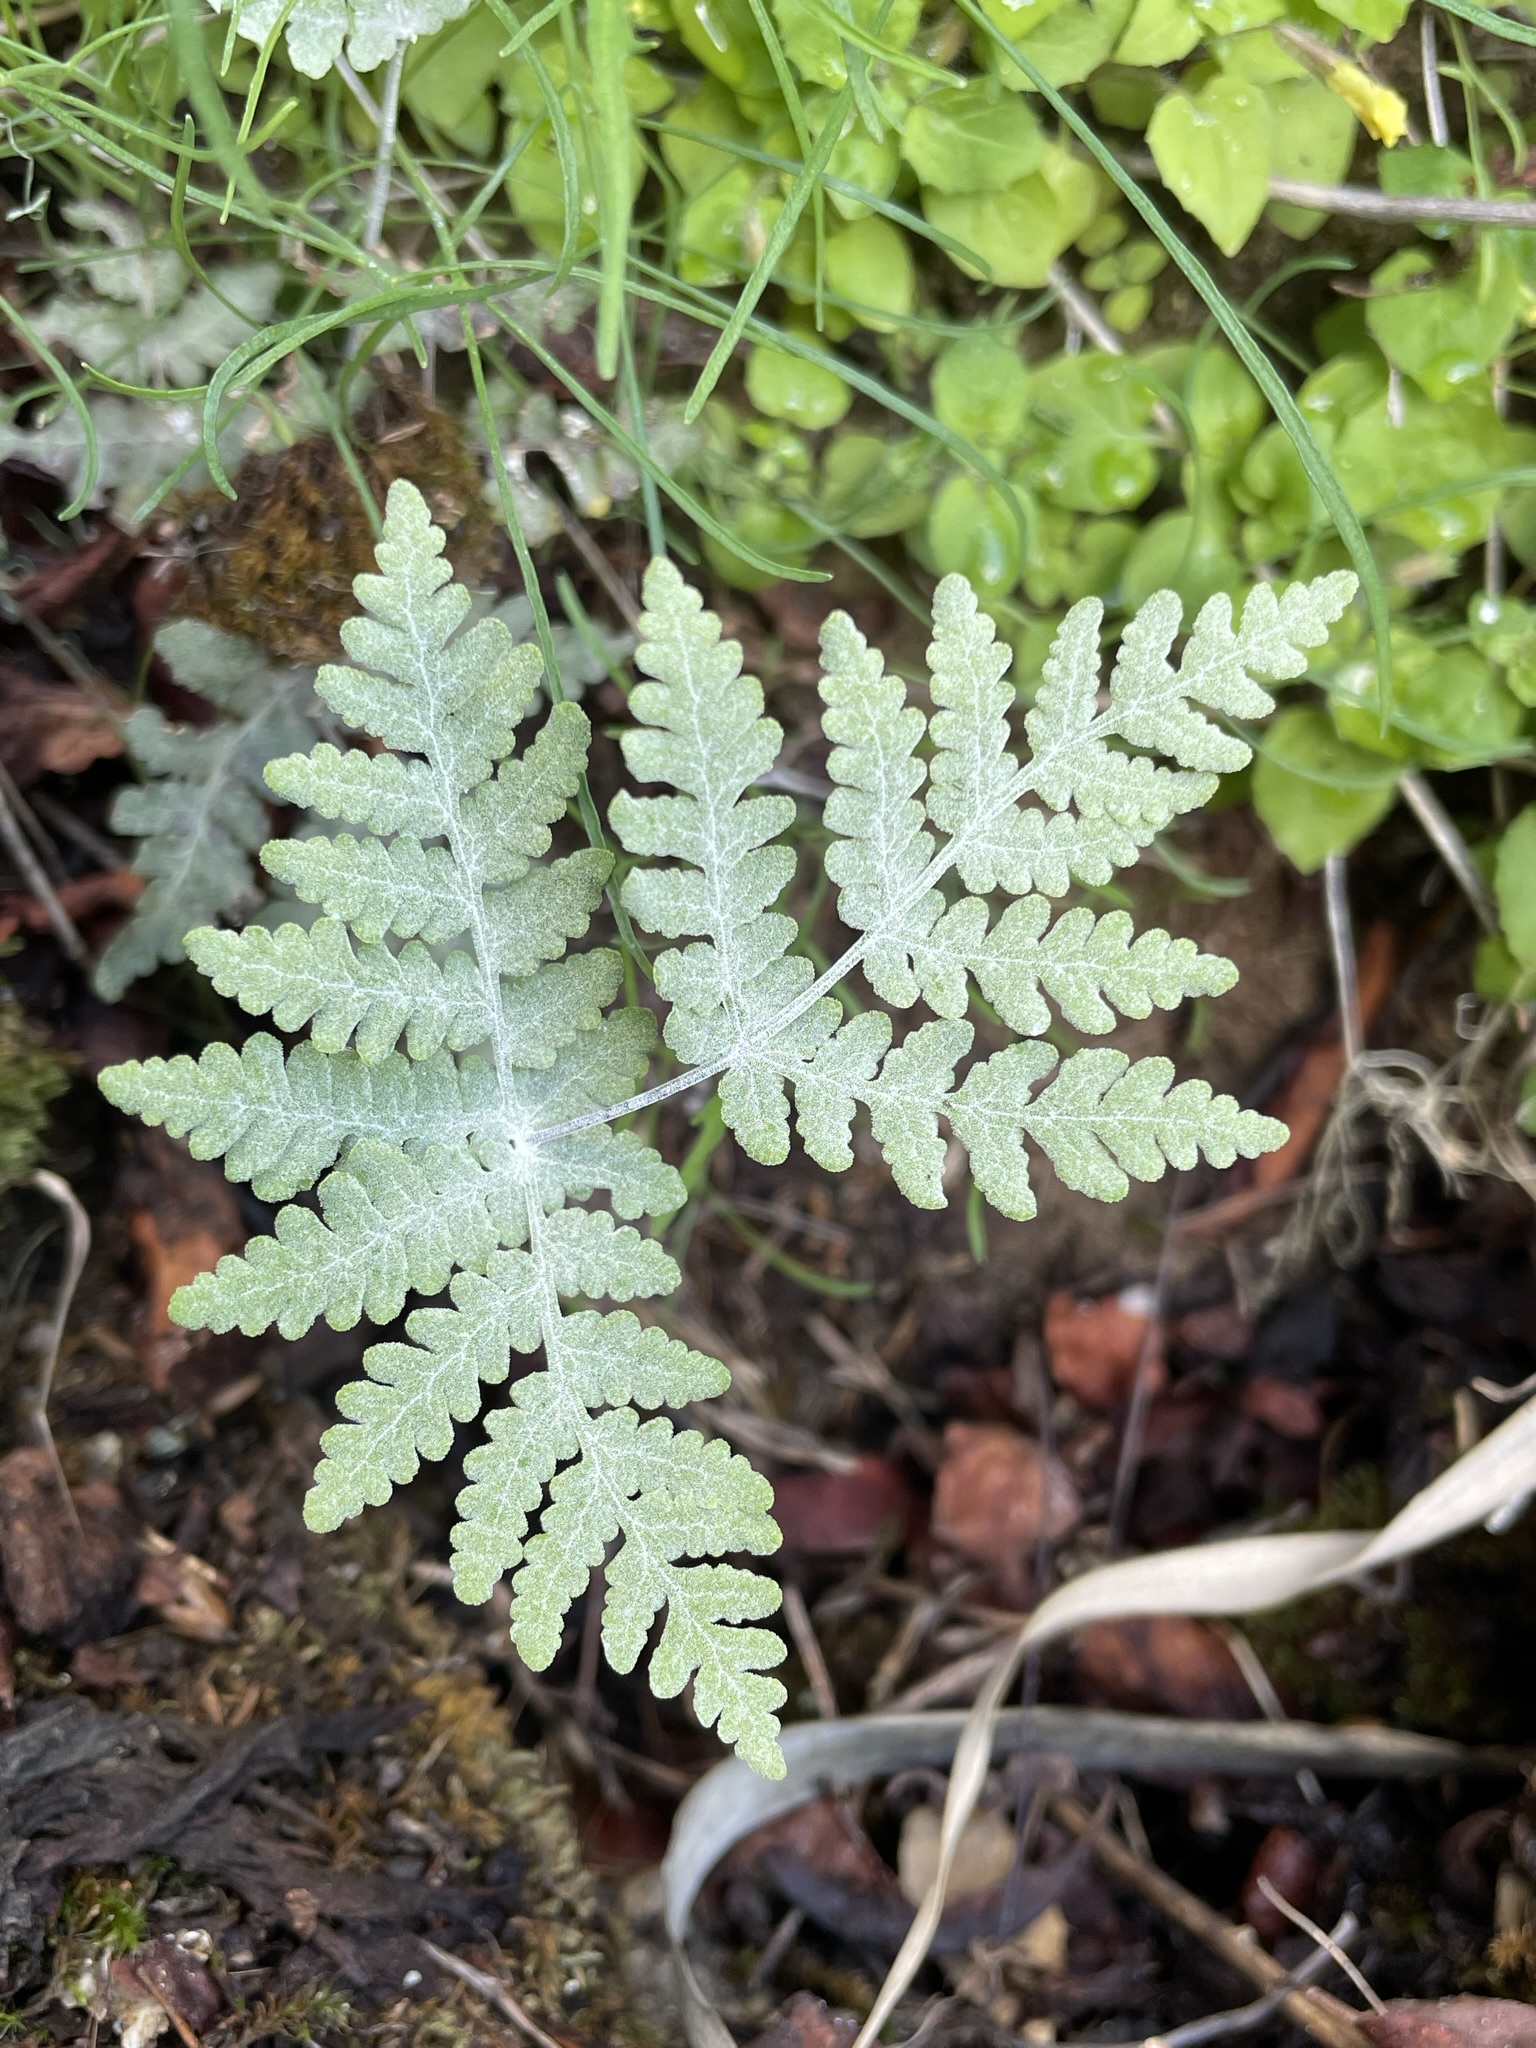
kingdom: Plantae
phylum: Tracheophyta
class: Polypodiopsida
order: Polypodiales
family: Pteridaceae
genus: Pentagramma
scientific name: Pentagramma pallida
